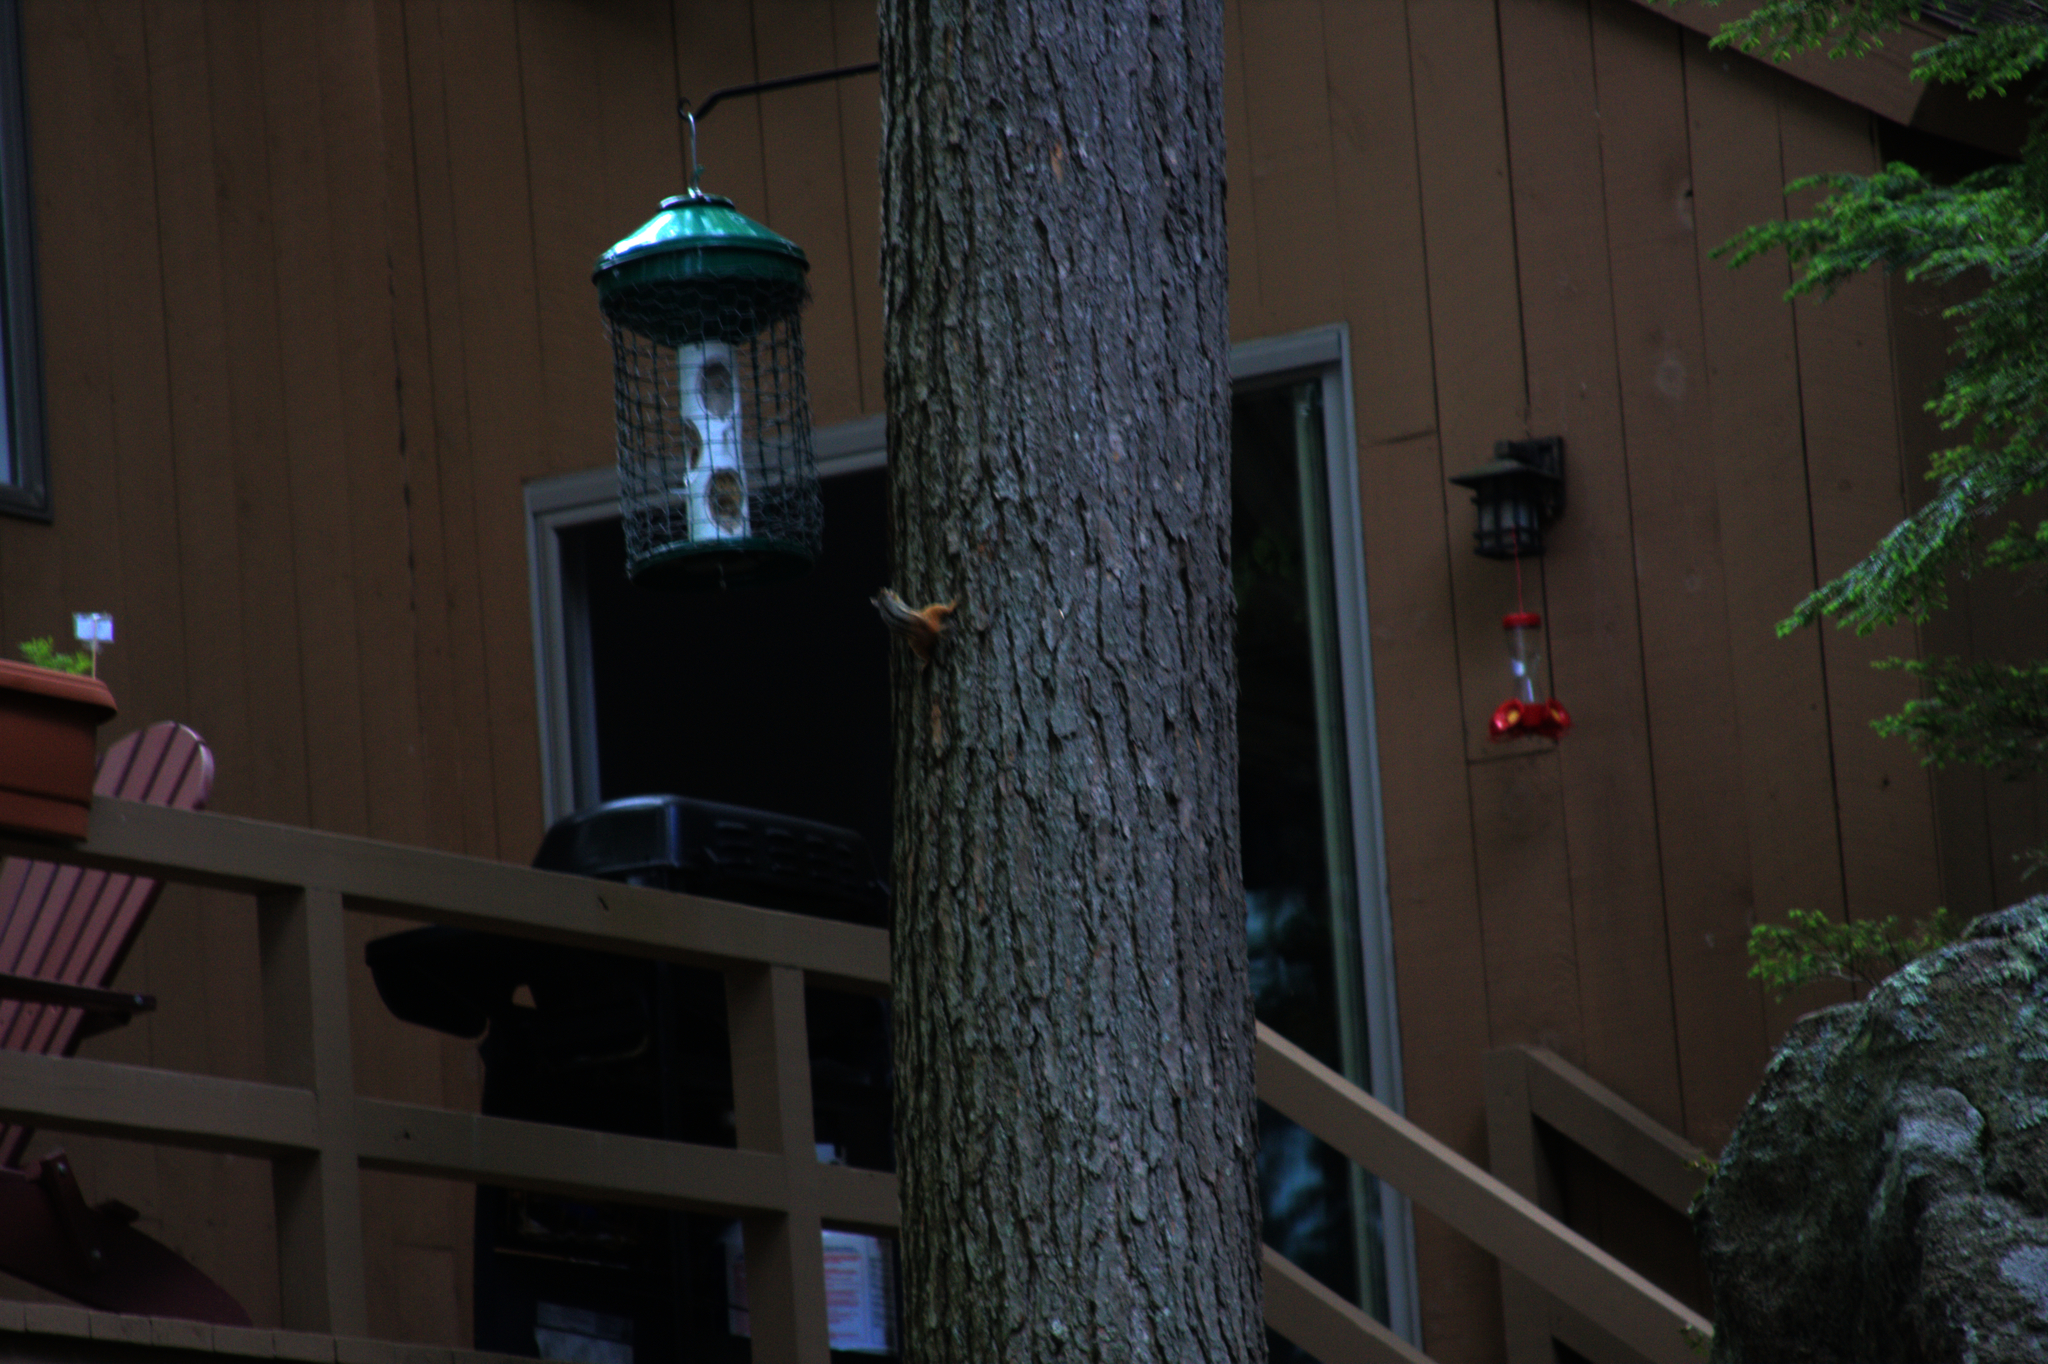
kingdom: Animalia
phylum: Chordata
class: Mammalia
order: Rodentia
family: Sciuridae
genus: Tamias
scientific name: Tamias striatus
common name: Eastern chipmunk
